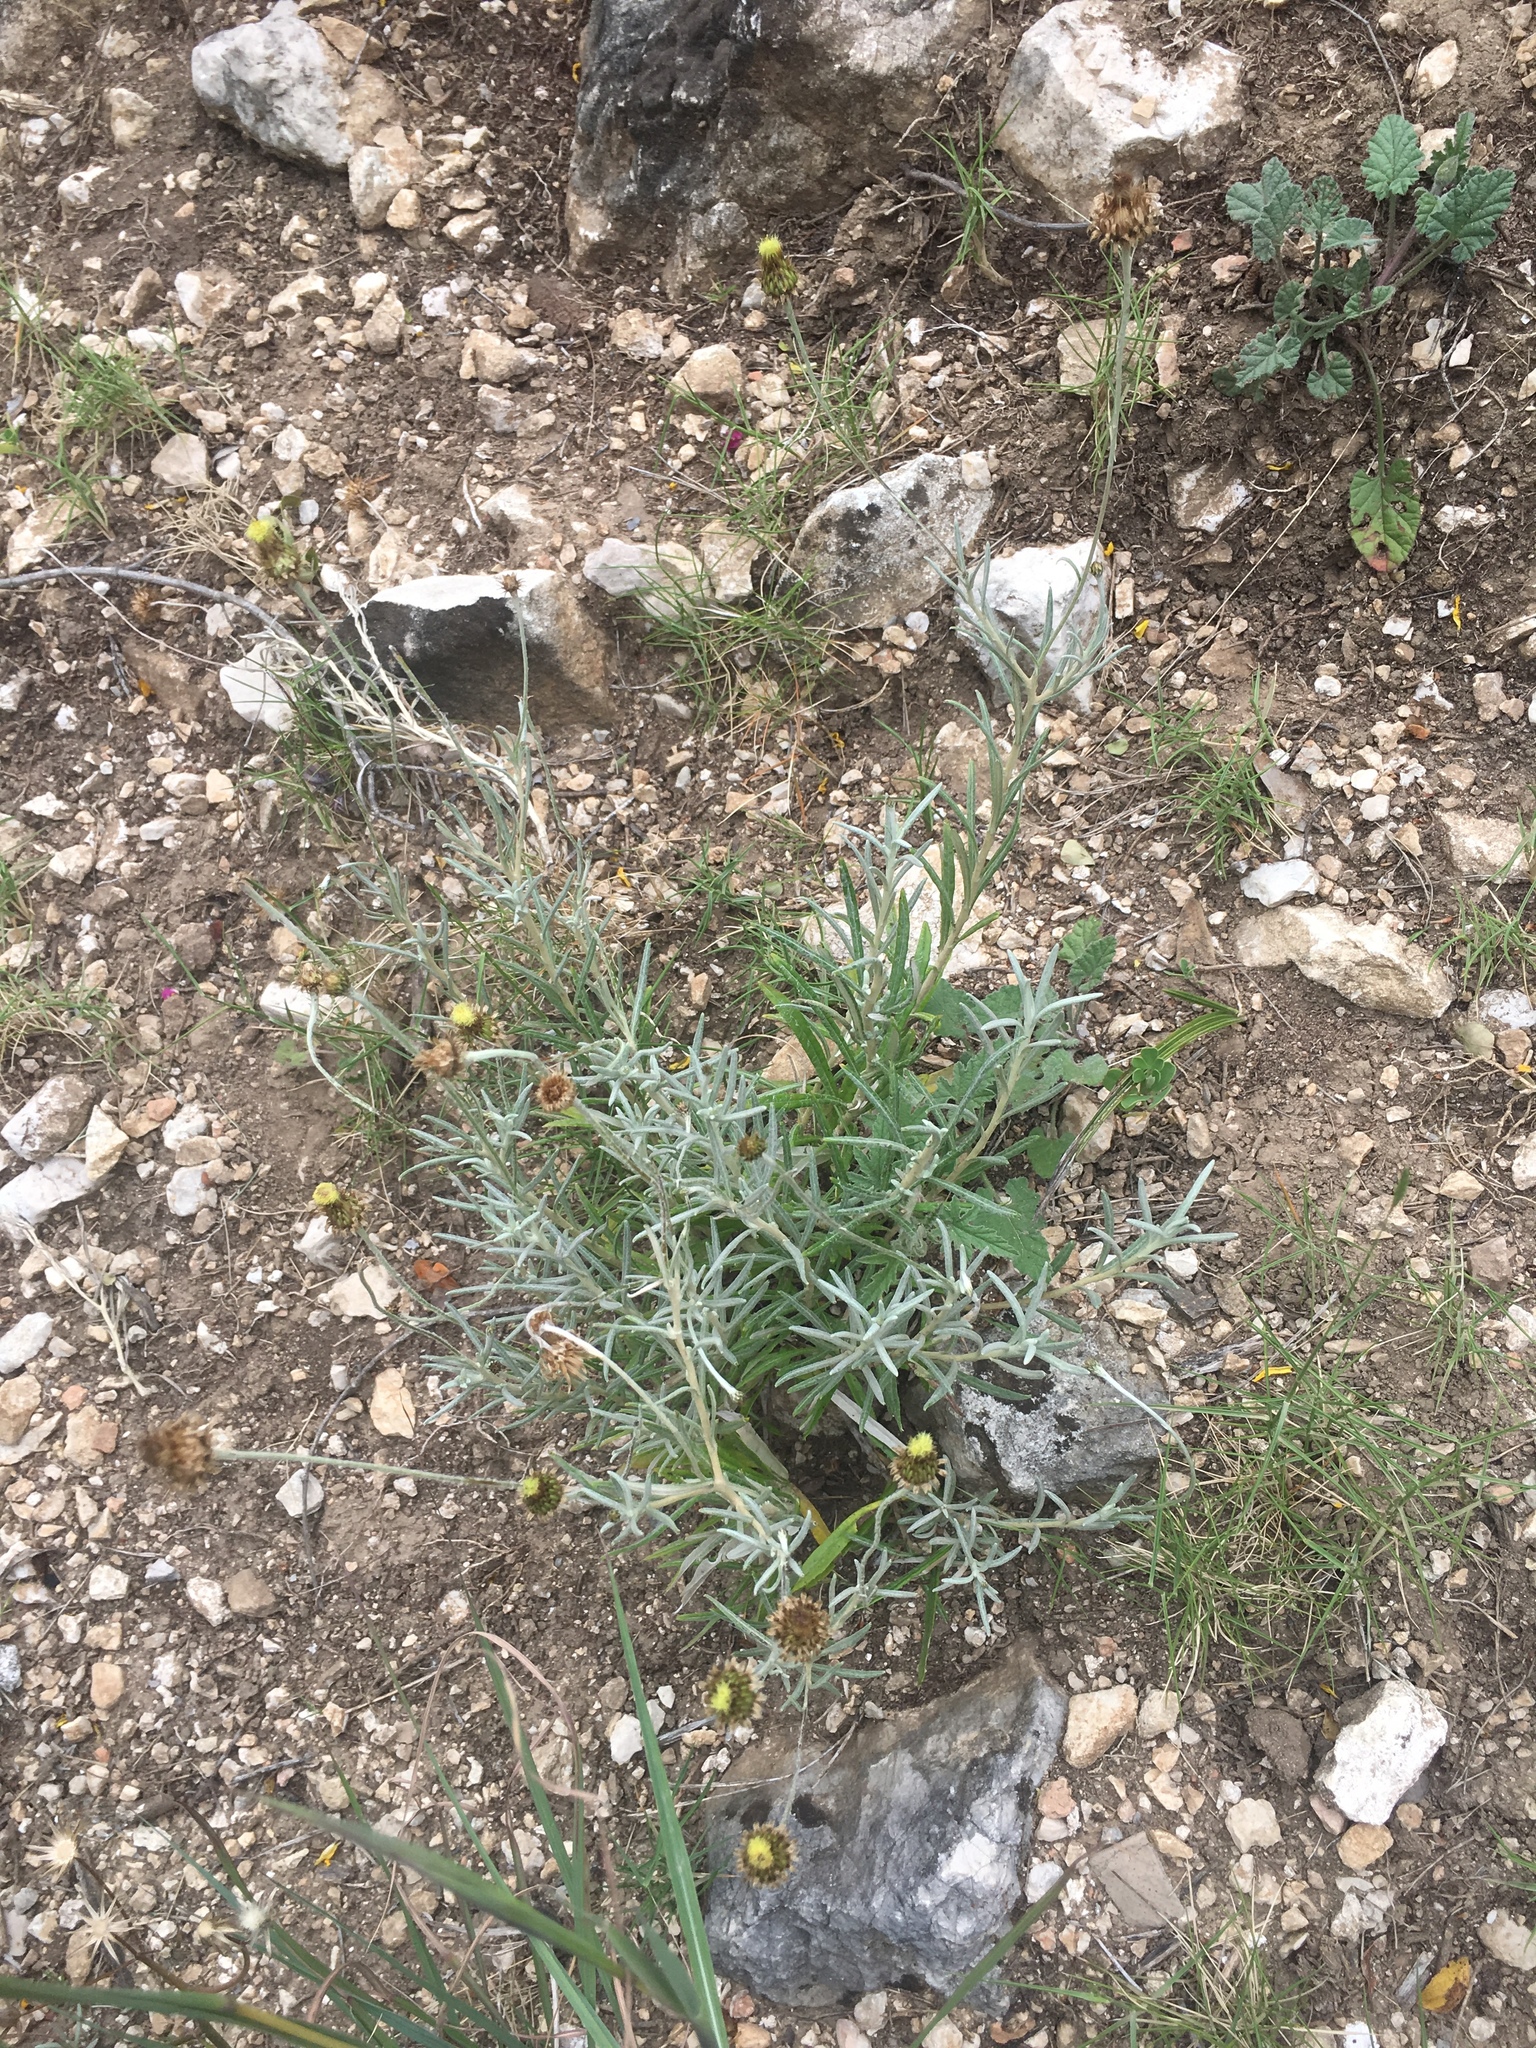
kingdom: Plantae
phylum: Tracheophyta
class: Magnoliopsida
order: Asterales
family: Asteraceae
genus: Phagnalon
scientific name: Phagnalon saxatile
